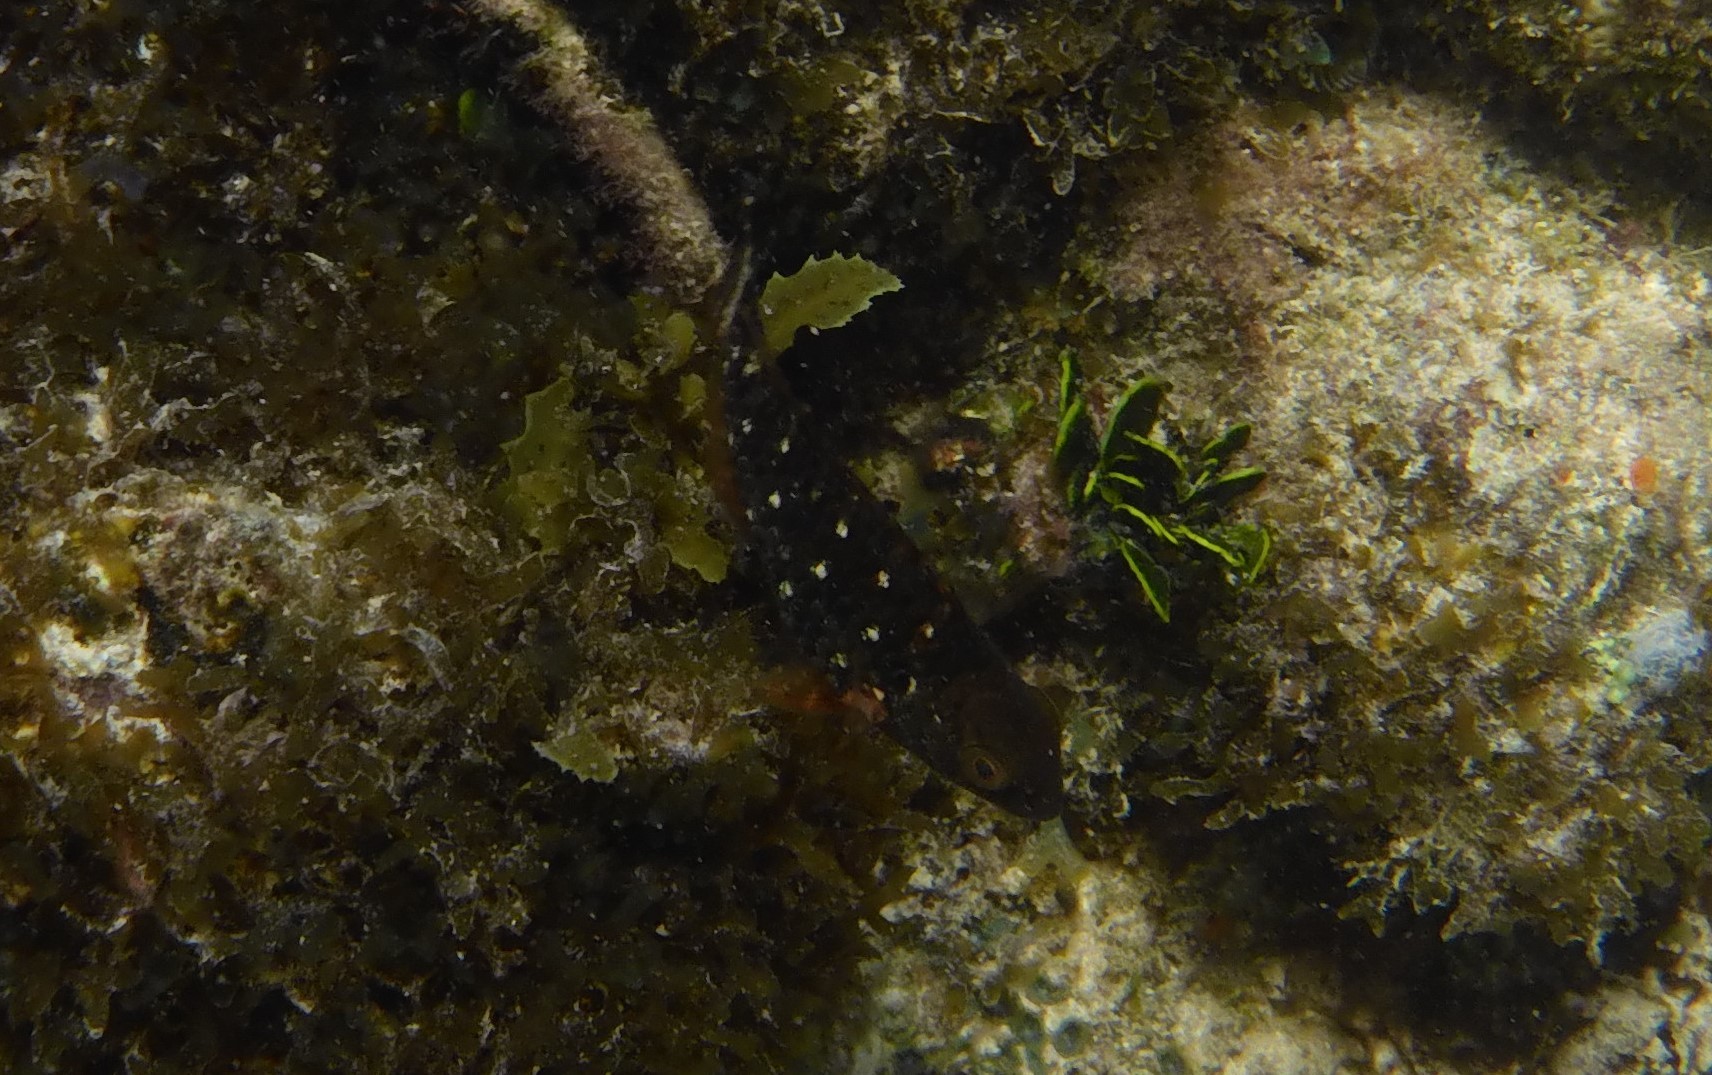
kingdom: Animalia
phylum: Chordata
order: Perciformes
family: Scaridae
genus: Sparisoma
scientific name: Sparisoma viride
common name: Stoplight parrotfish
